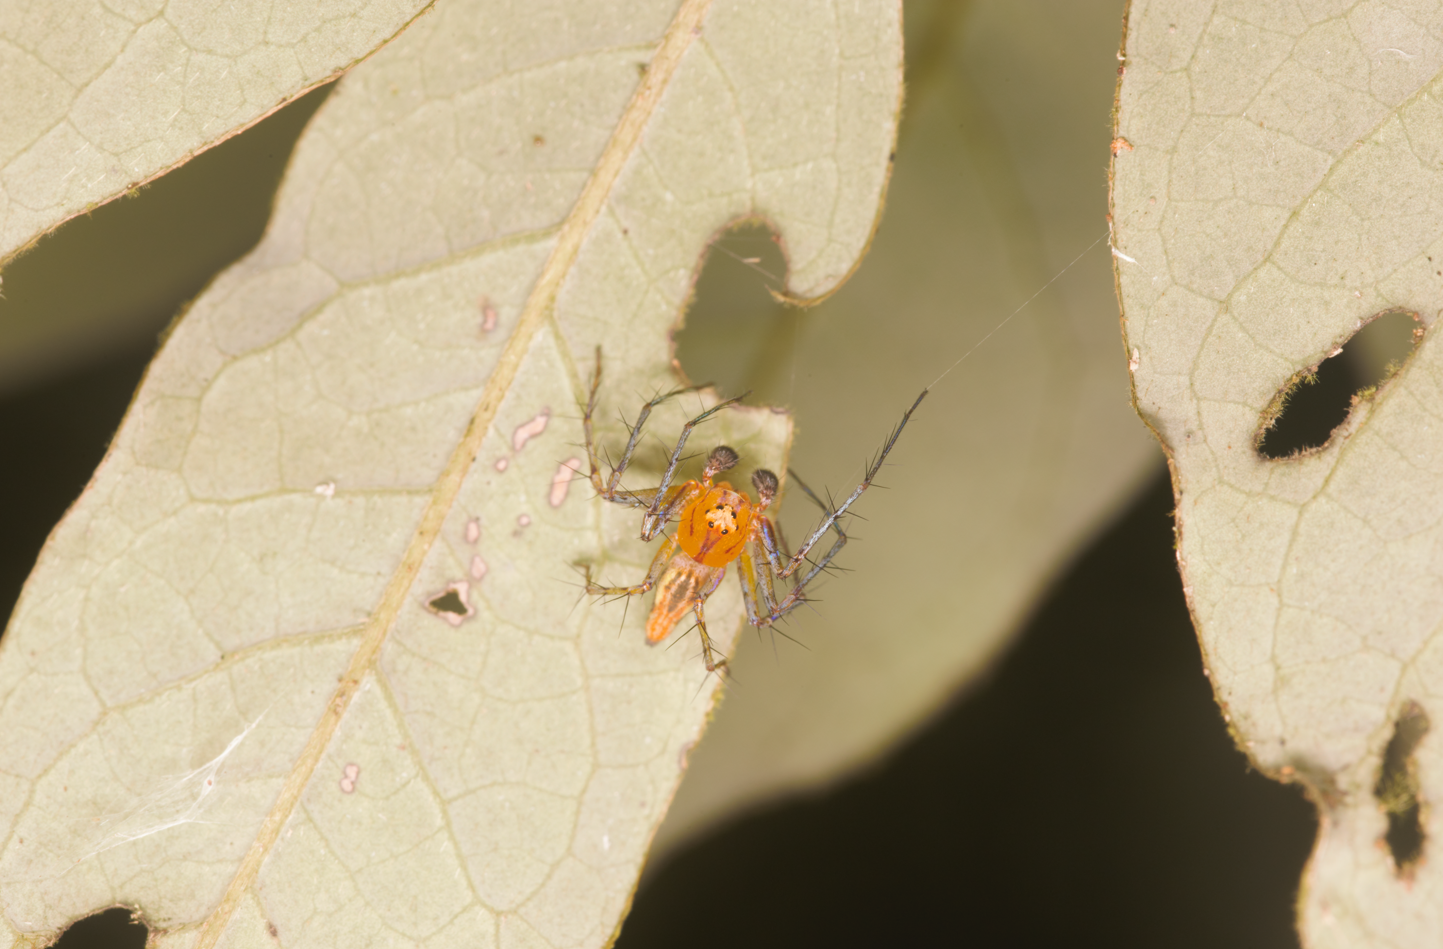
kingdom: Animalia
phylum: Arthropoda
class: Arachnida
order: Araneae
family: Oxyopidae
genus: Oxyopes
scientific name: Oxyopes incertus
